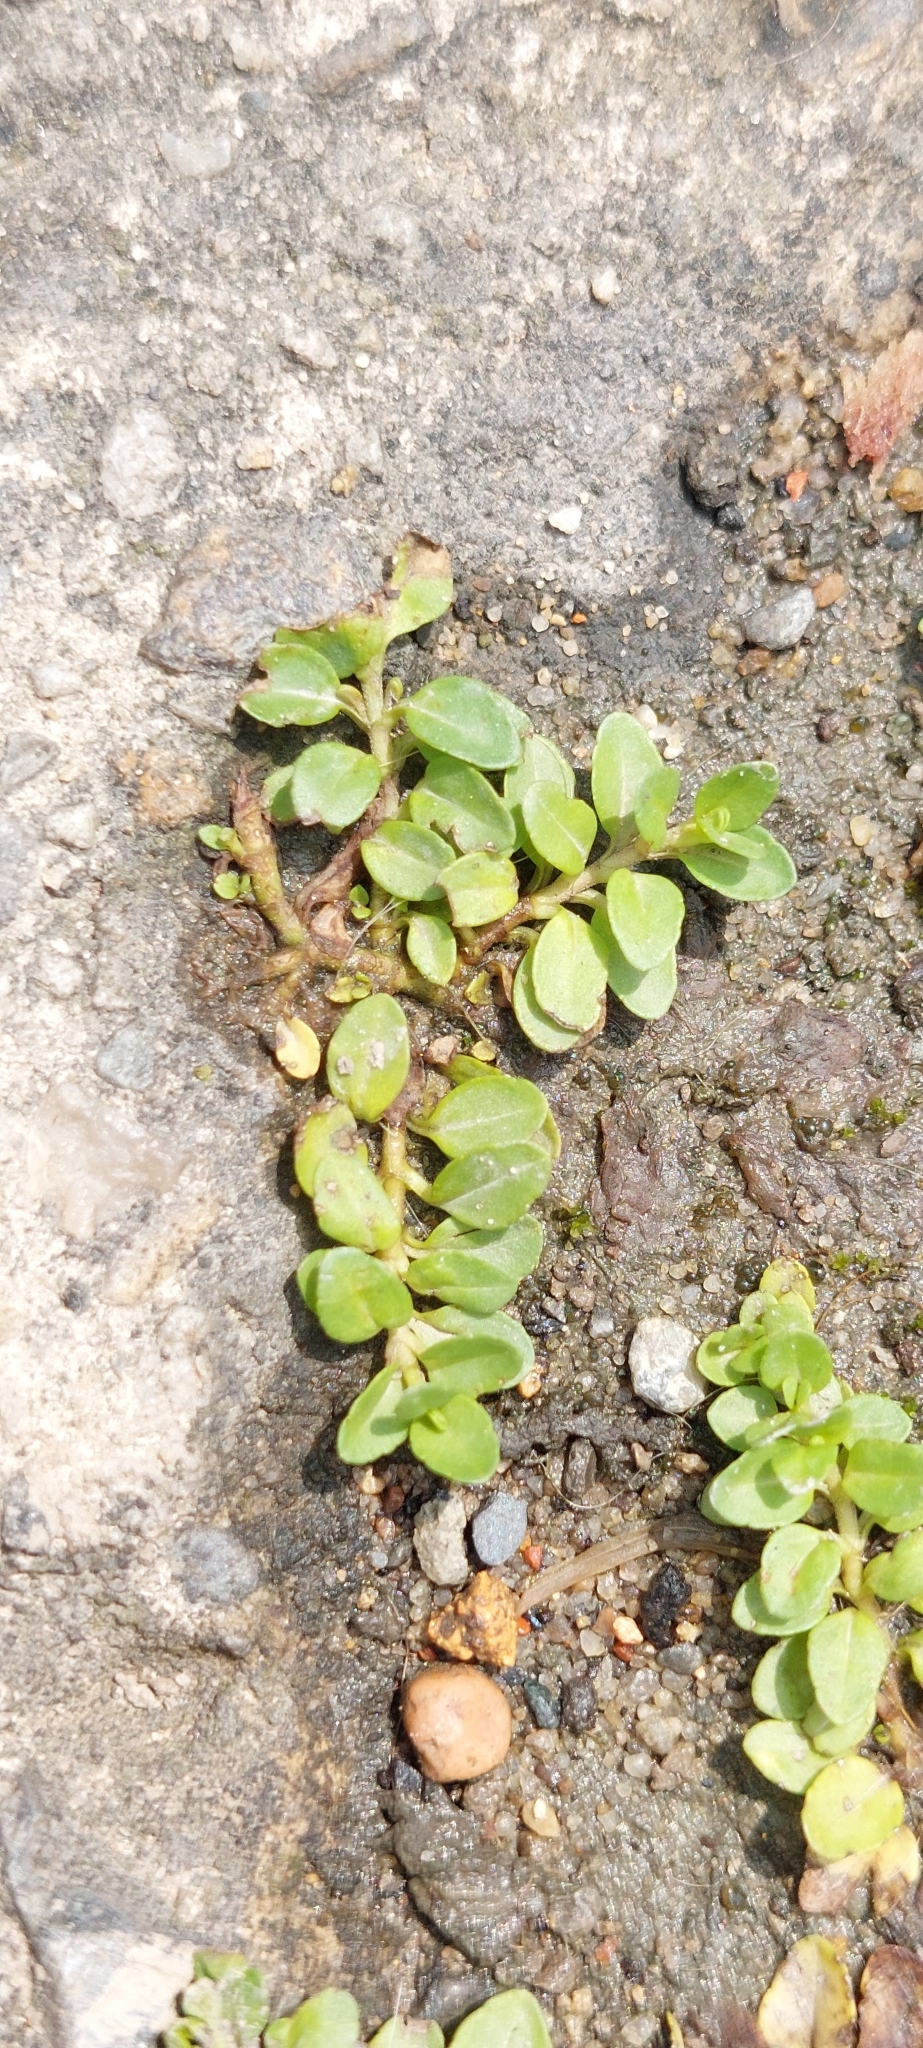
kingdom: Plantae
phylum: Tracheophyta
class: Magnoliopsida
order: Lamiales
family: Plantaginaceae
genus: Veronica
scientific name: Veronica serpyllifolia
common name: Thyme-leaved speedwell
